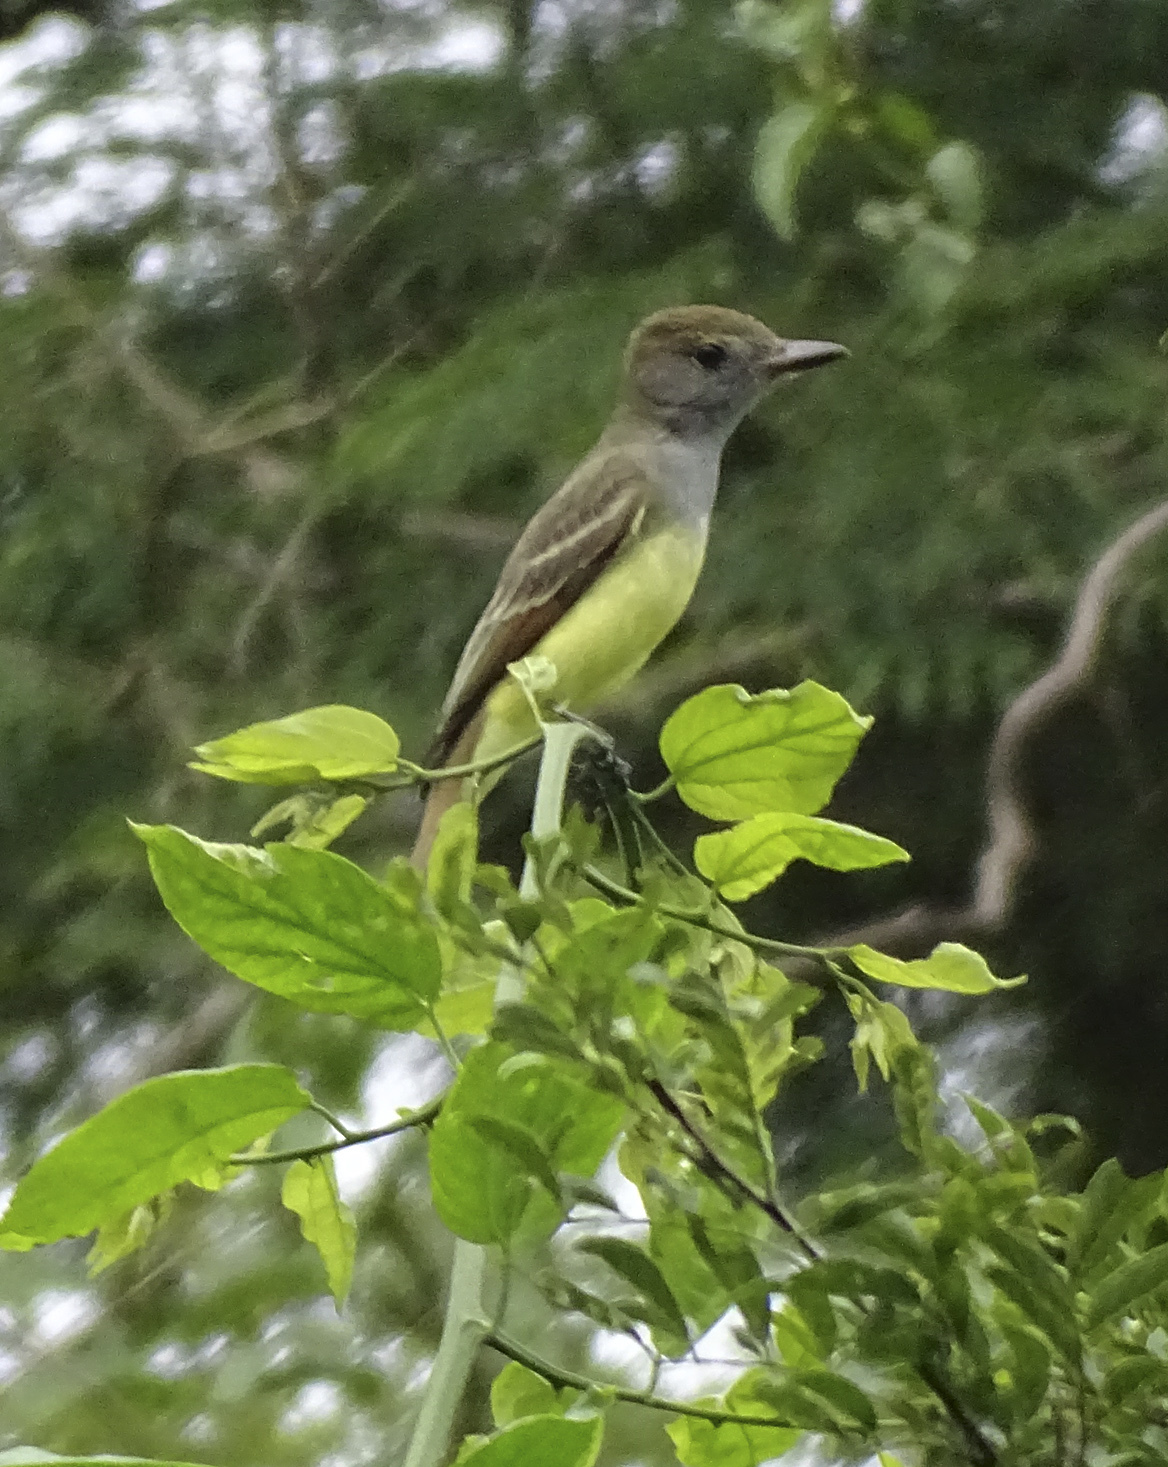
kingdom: Animalia
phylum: Chordata
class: Aves
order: Passeriformes
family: Tyrannidae
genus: Myiarchus
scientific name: Myiarchus crinitus
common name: Great crested flycatcher
